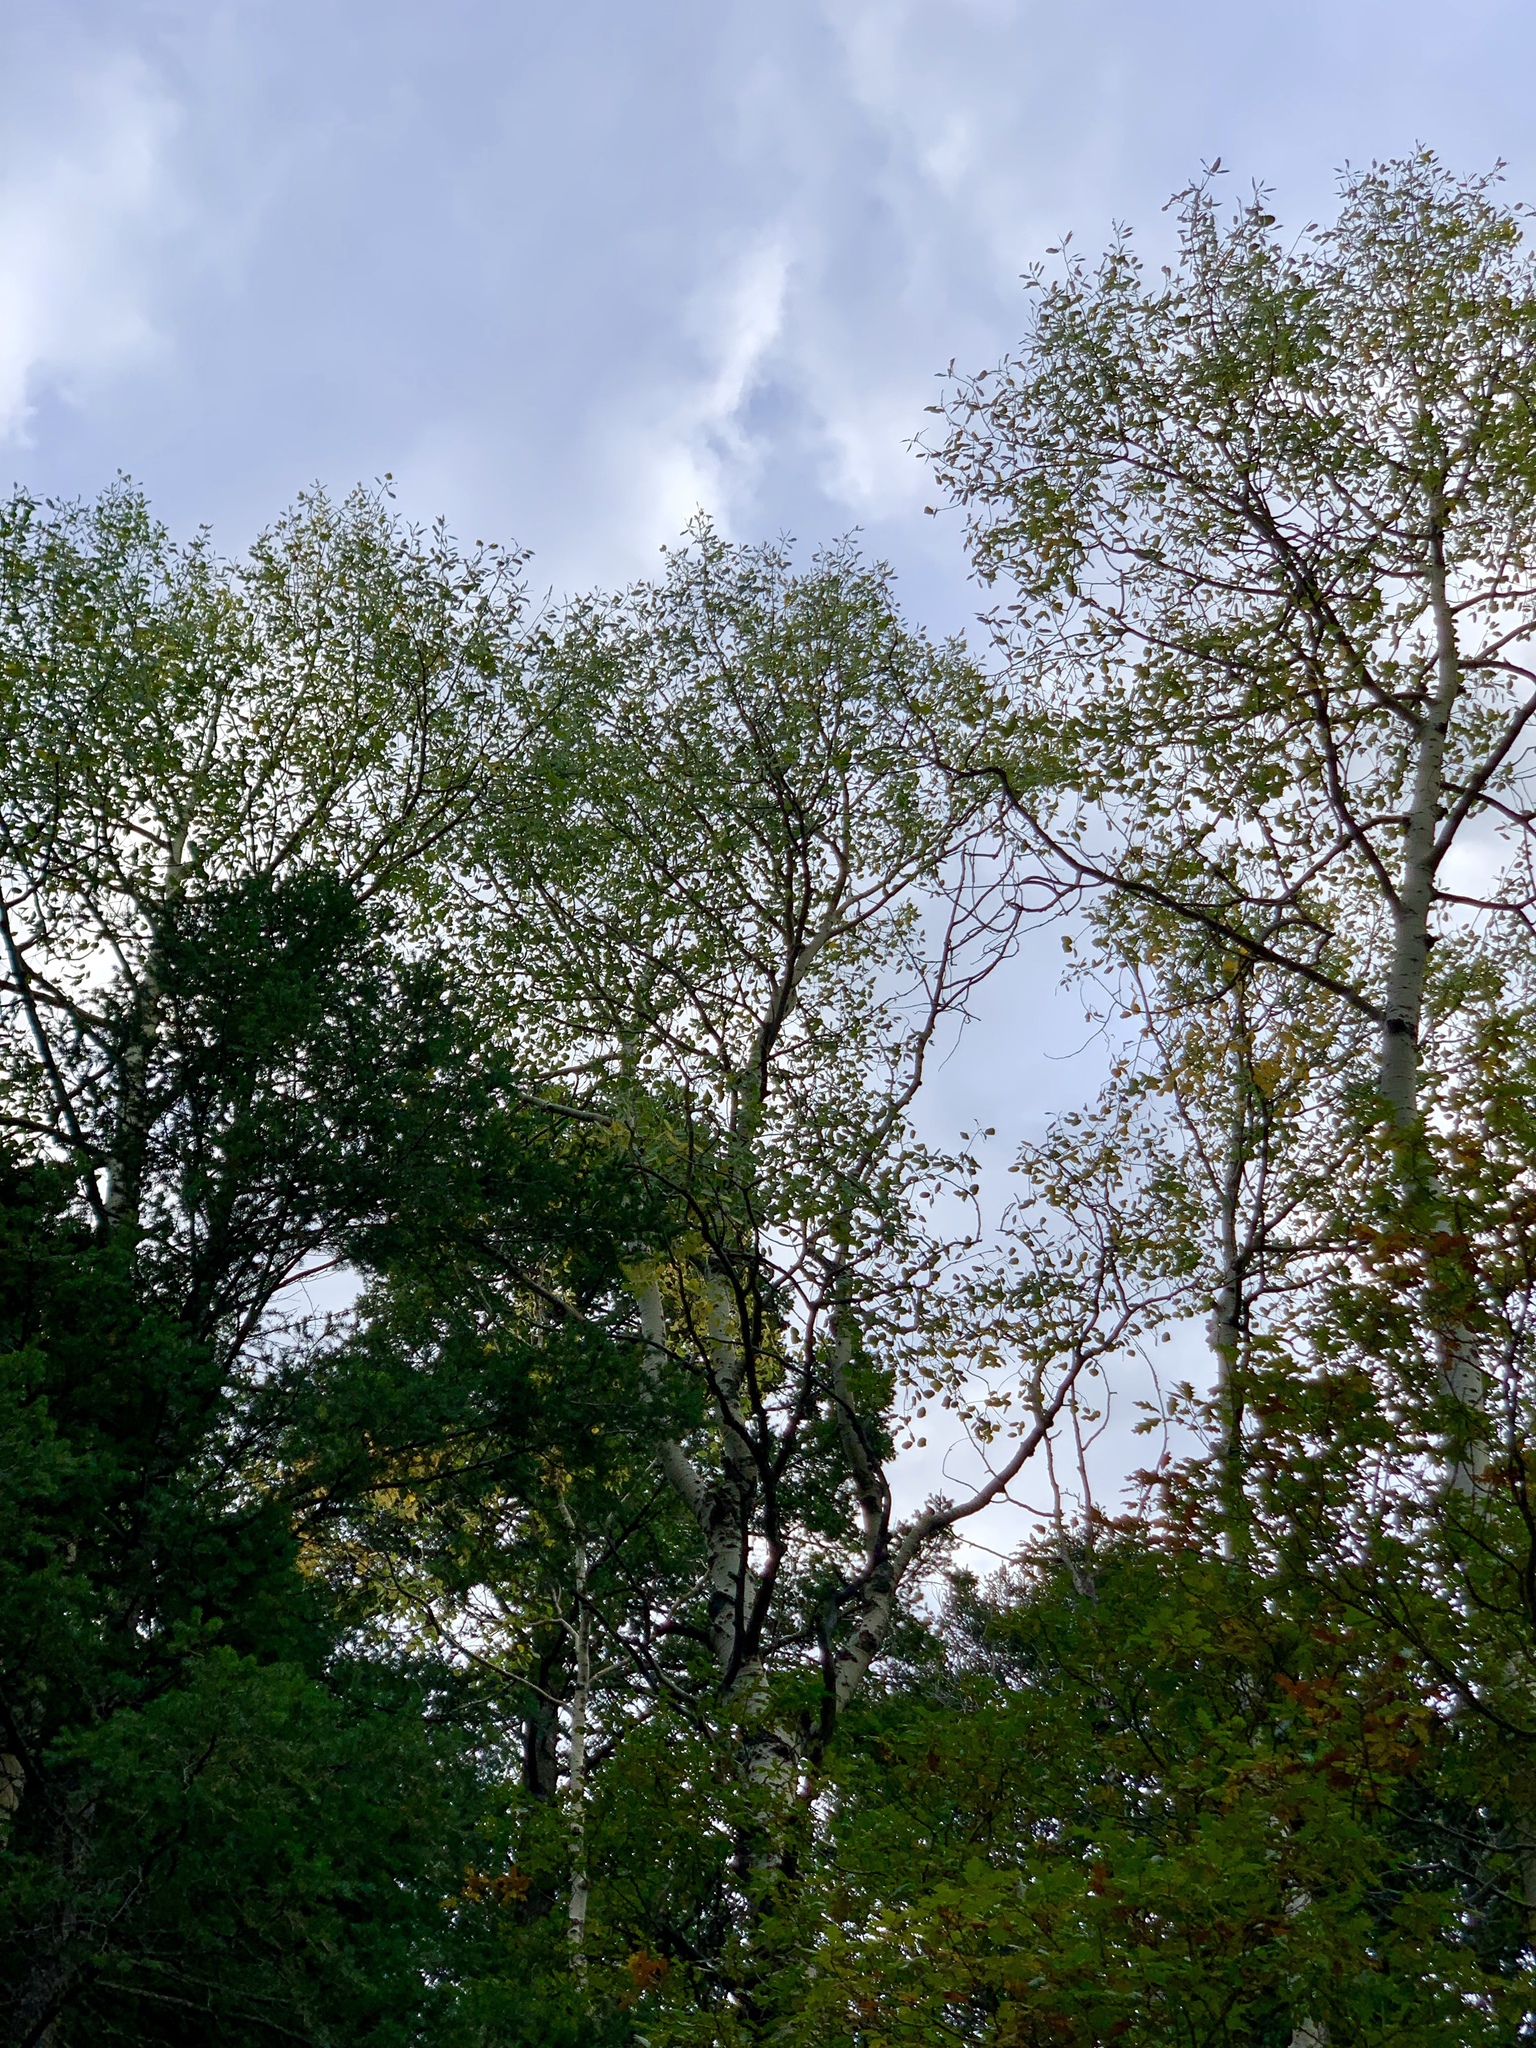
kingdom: Plantae
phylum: Tracheophyta
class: Magnoliopsida
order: Malpighiales
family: Salicaceae
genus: Populus
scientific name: Populus tremuloides
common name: Quaking aspen
